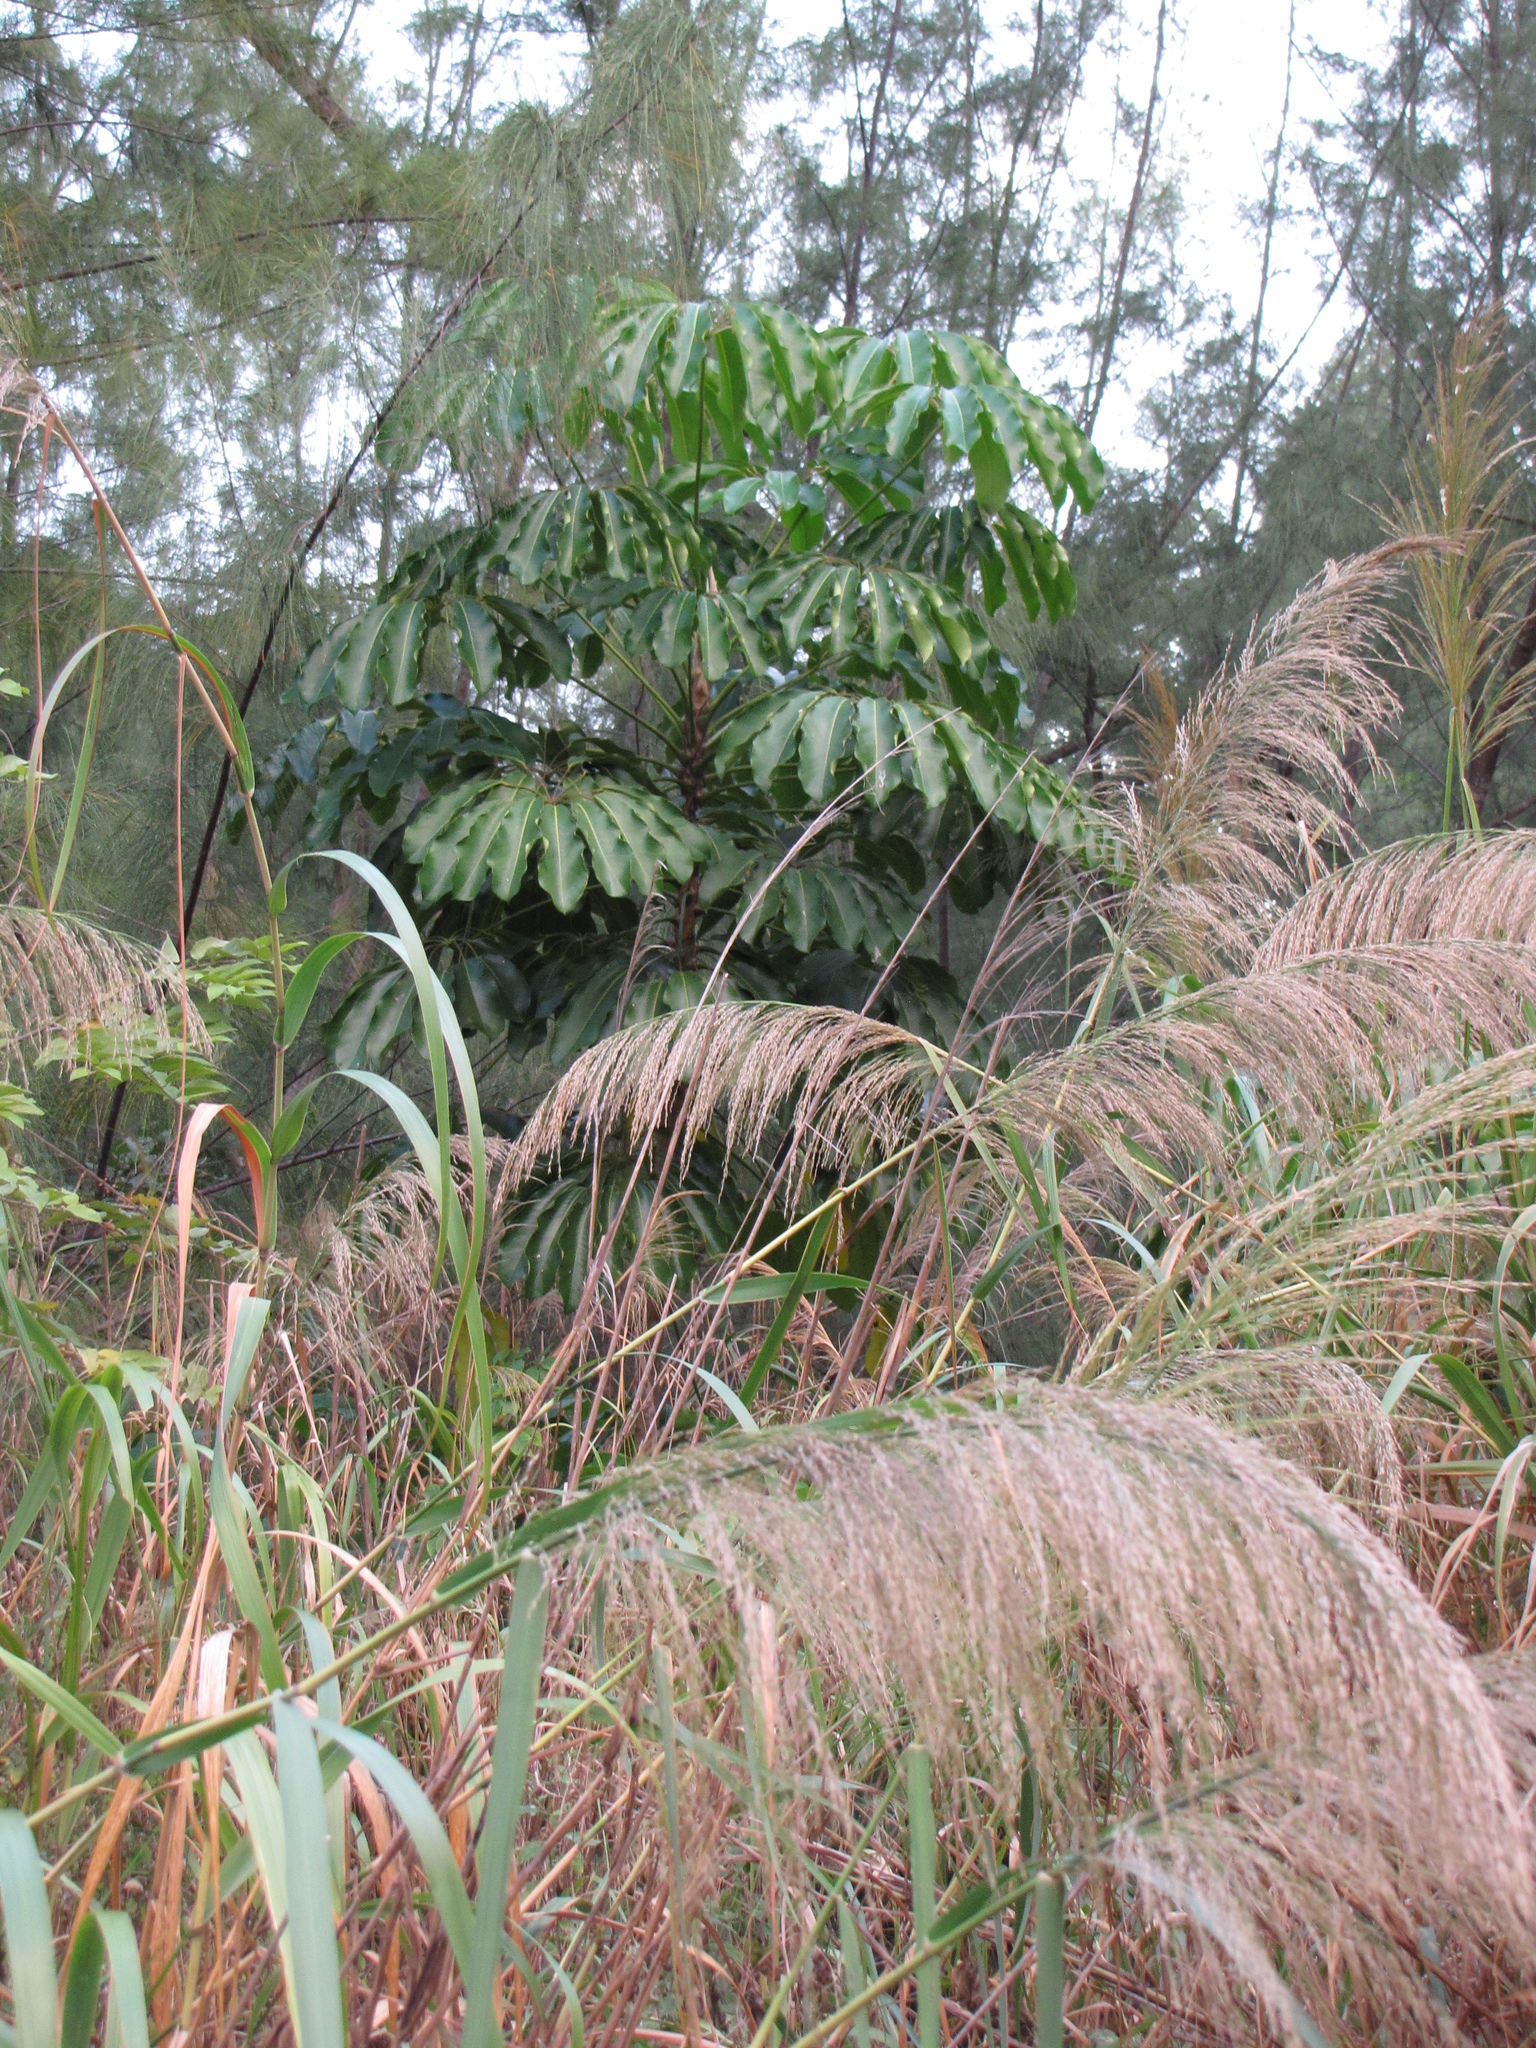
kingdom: Plantae
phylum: Tracheophyta
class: Liliopsida
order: Poales
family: Poaceae
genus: Neyraudia
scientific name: Neyraudia reynaudiana
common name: Silkreed
